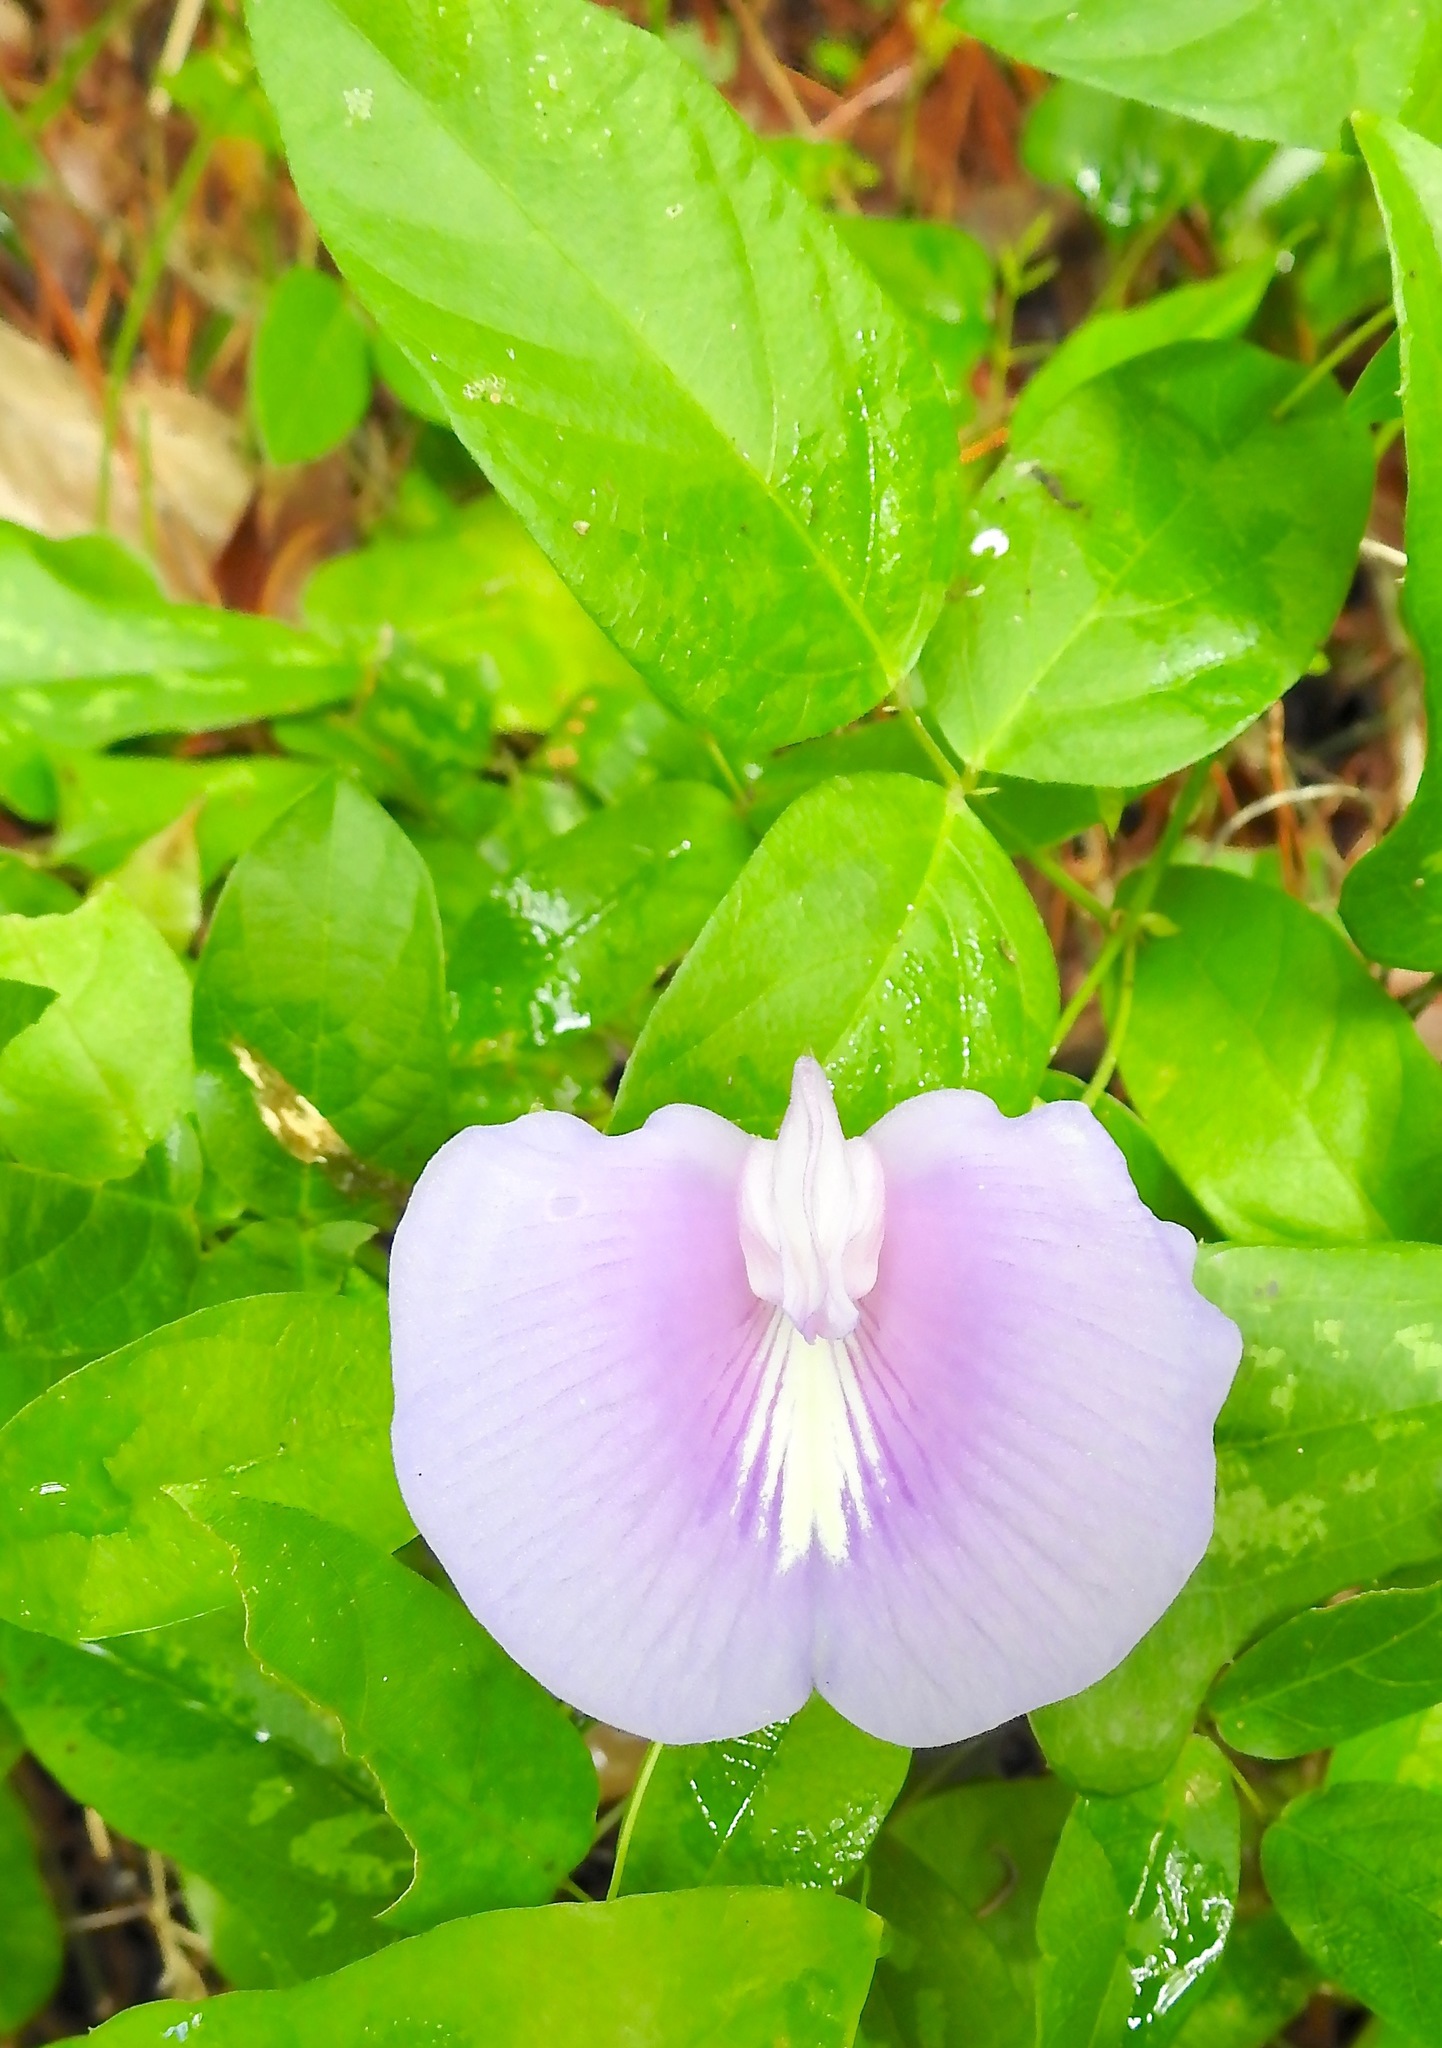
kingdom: Plantae
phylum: Tracheophyta
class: Magnoliopsida
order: Fabales
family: Fabaceae
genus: Centrosema
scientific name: Centrosema virginianum
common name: Butterfly-pea
